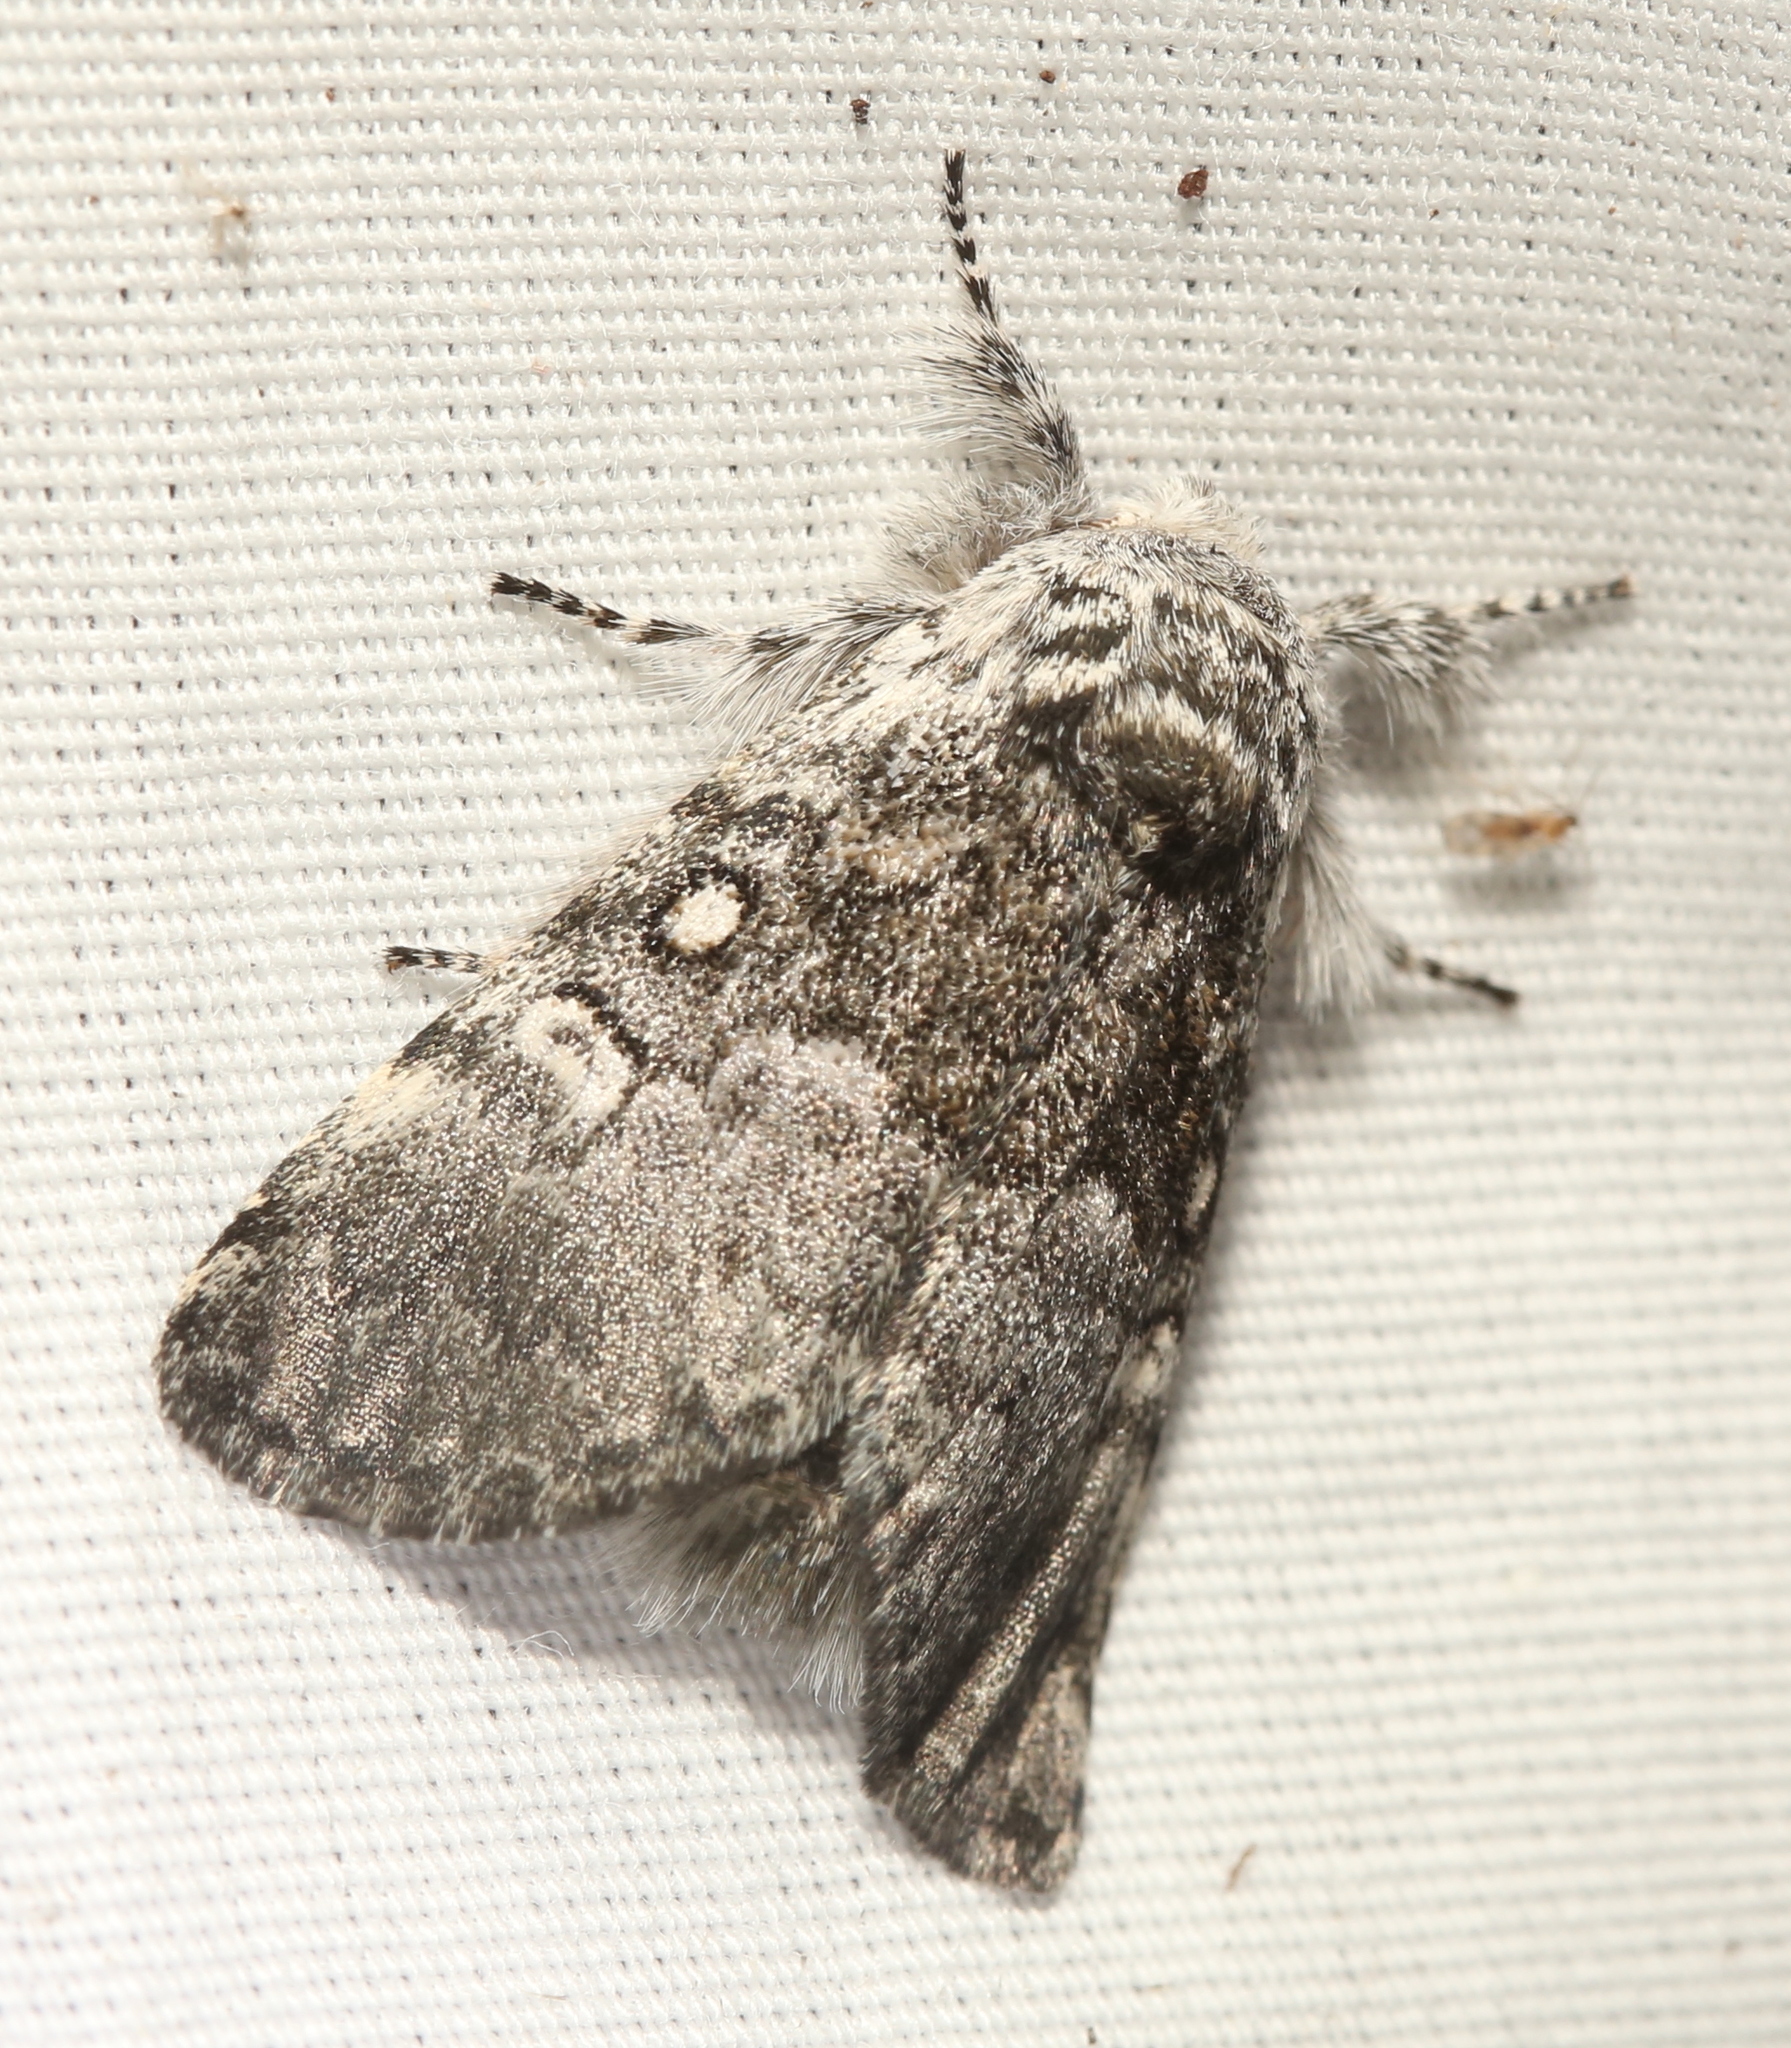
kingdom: Animalia
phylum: Arthropoda
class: Insecta
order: Lepidoptera
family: Noctuidae
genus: Colocasia
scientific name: Colocasia propinquilinea
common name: Close-banded demas
